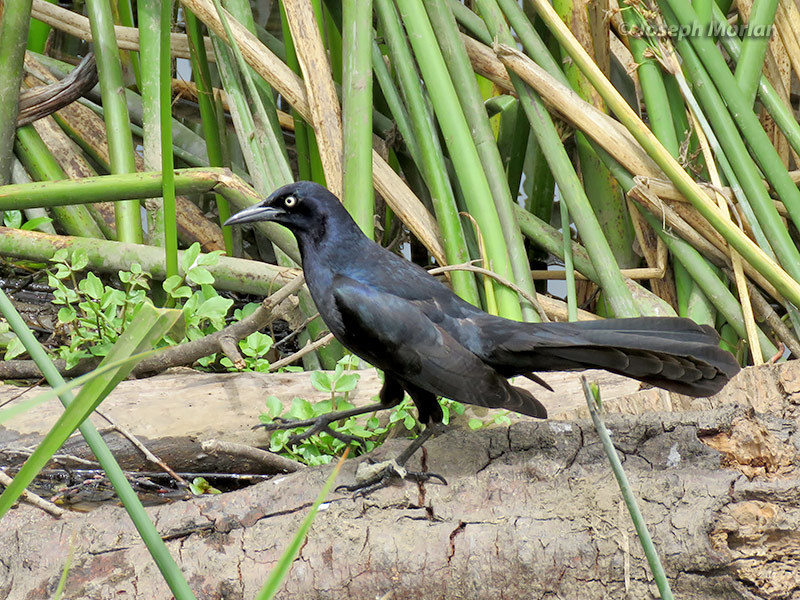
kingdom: Animalia
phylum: Chordata
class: Aves
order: Passeriformes
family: Icteridae
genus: Quiscalus
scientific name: Quiscalus mexicanus
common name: Great-tailed grackle
